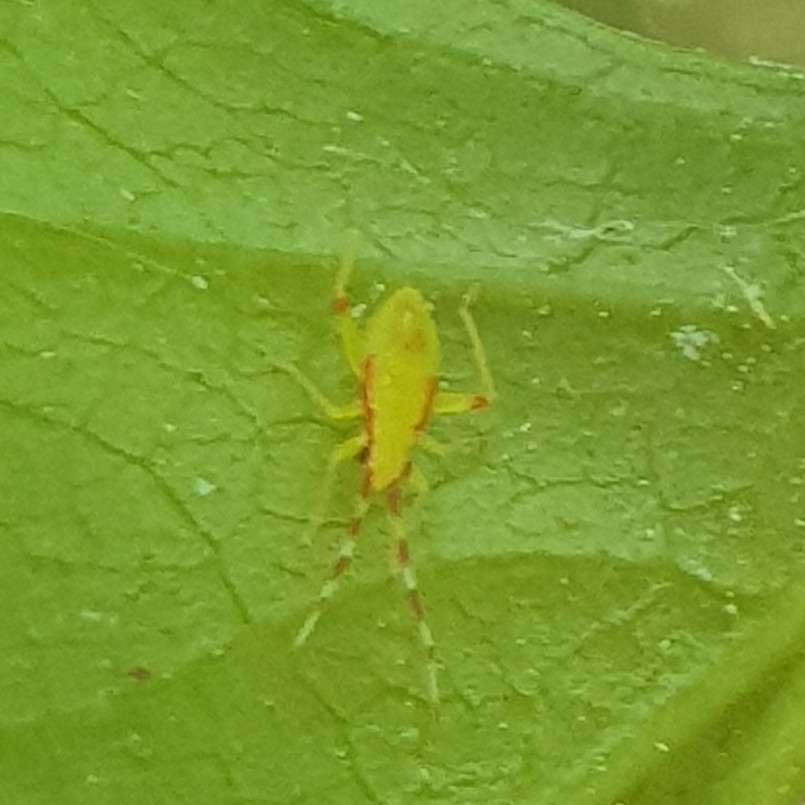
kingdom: Animalia
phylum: Arthropoda
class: Insecta
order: Hemiptera
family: Miridae
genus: Campyloneura
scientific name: Campyloneura virgula
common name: Predatory bug
